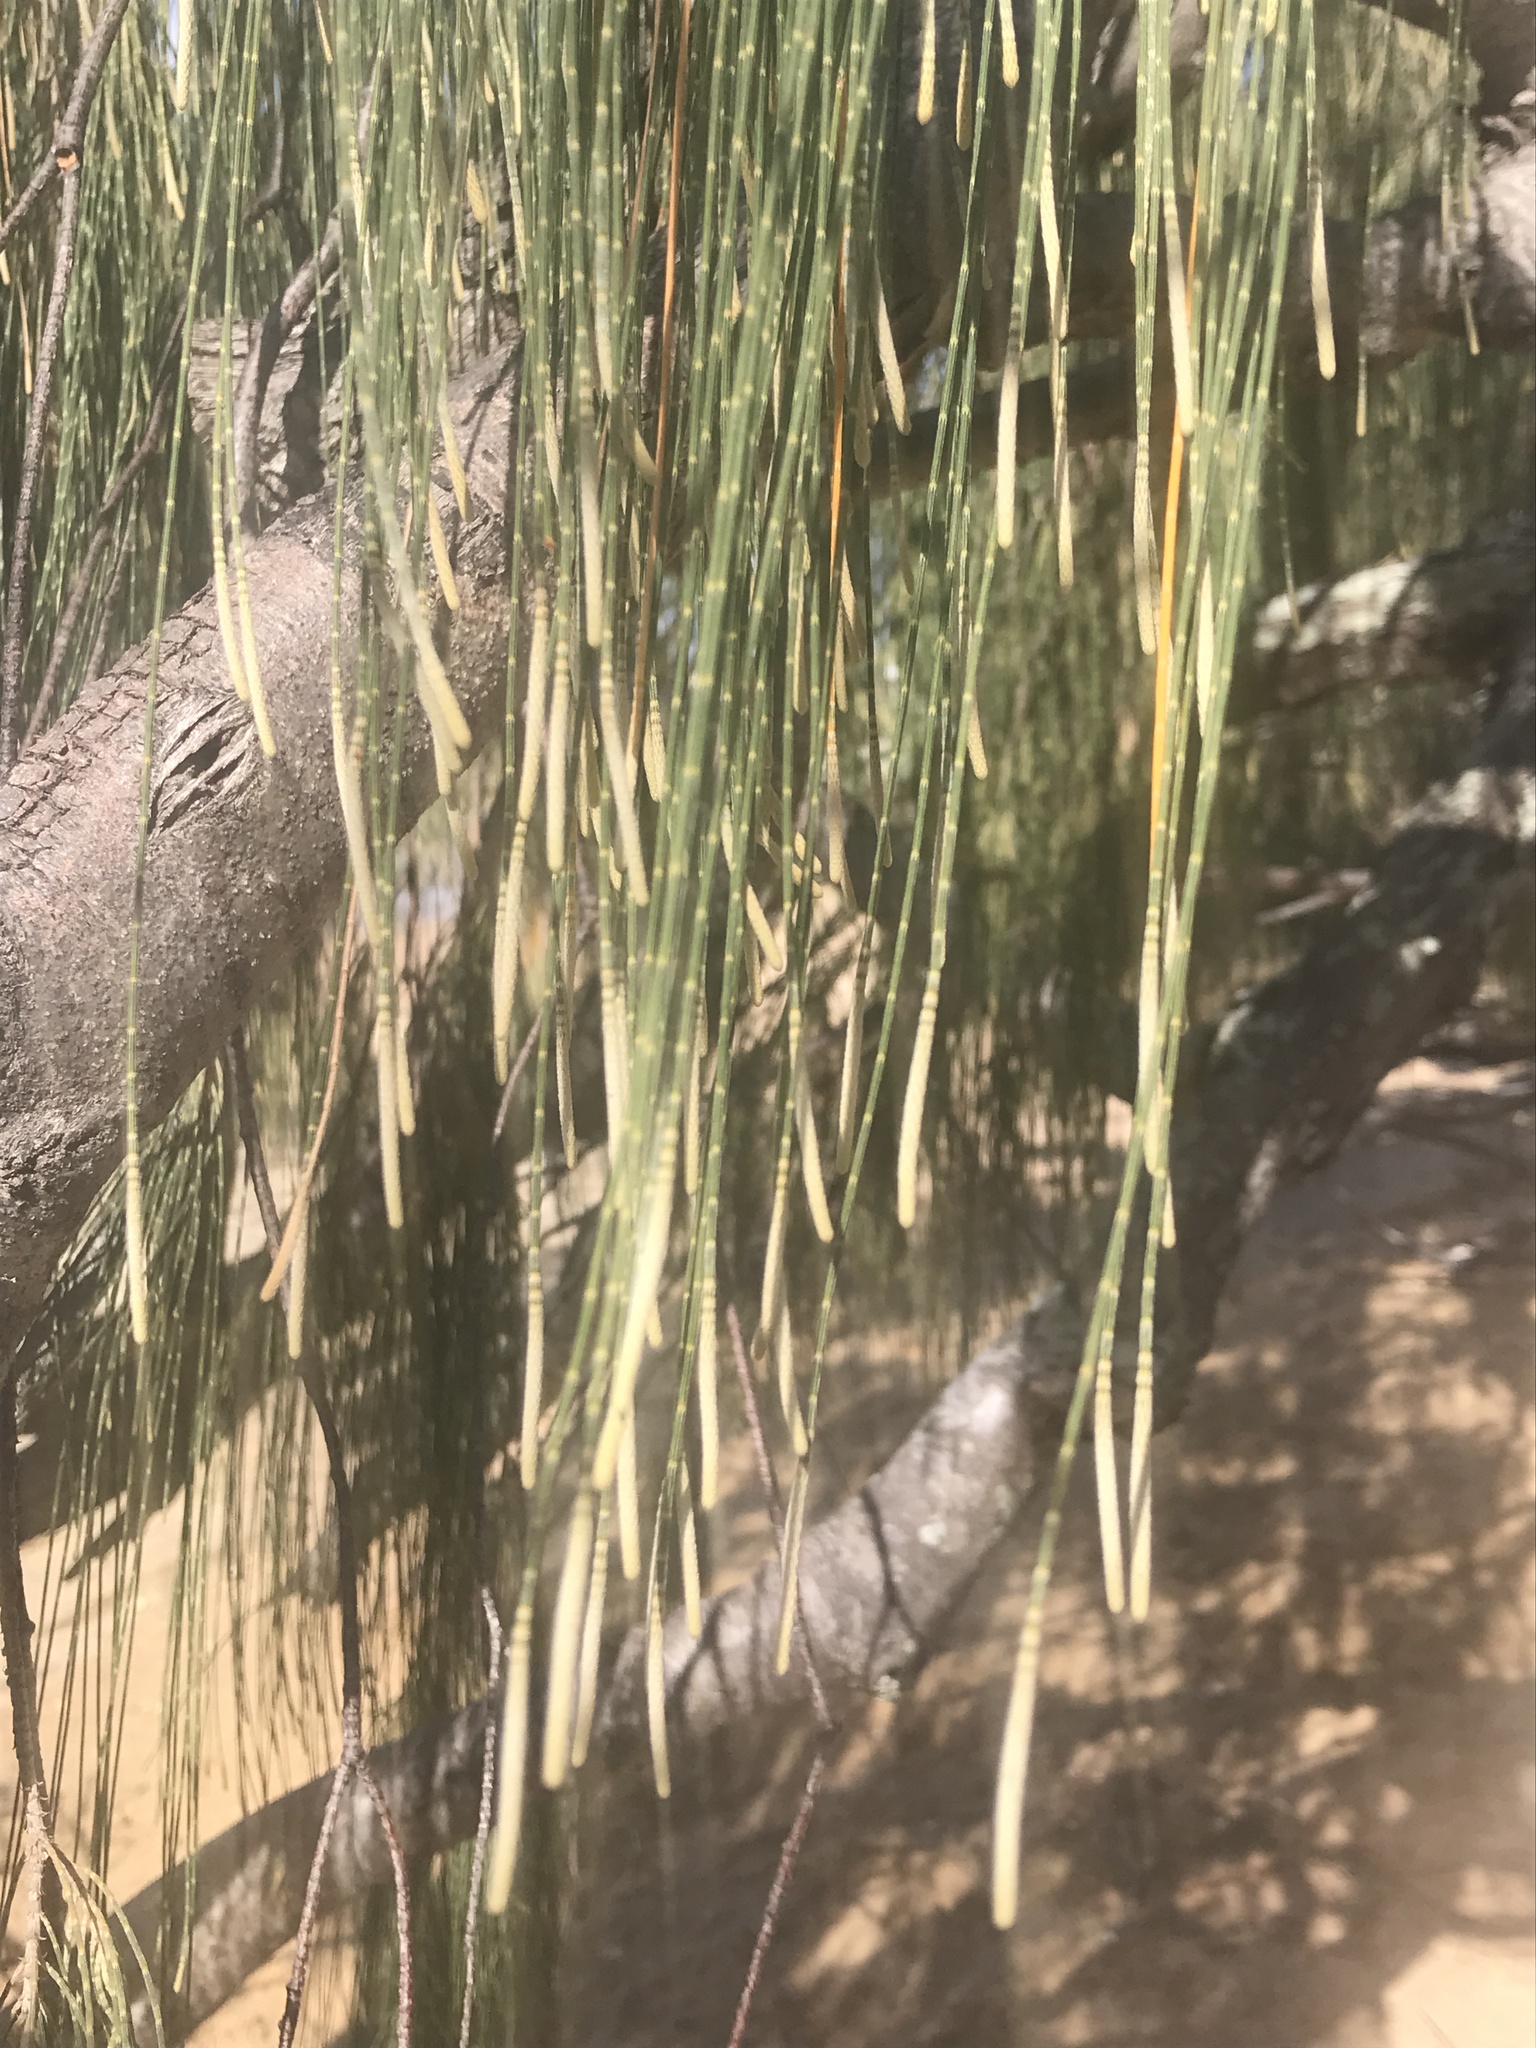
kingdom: Plantae
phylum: Tracheophyta
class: Magnoliopsida
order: Fagales
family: Casuarinaceae
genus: Casuarina
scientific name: Casuarina equisetifolia
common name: Beach sheoak
